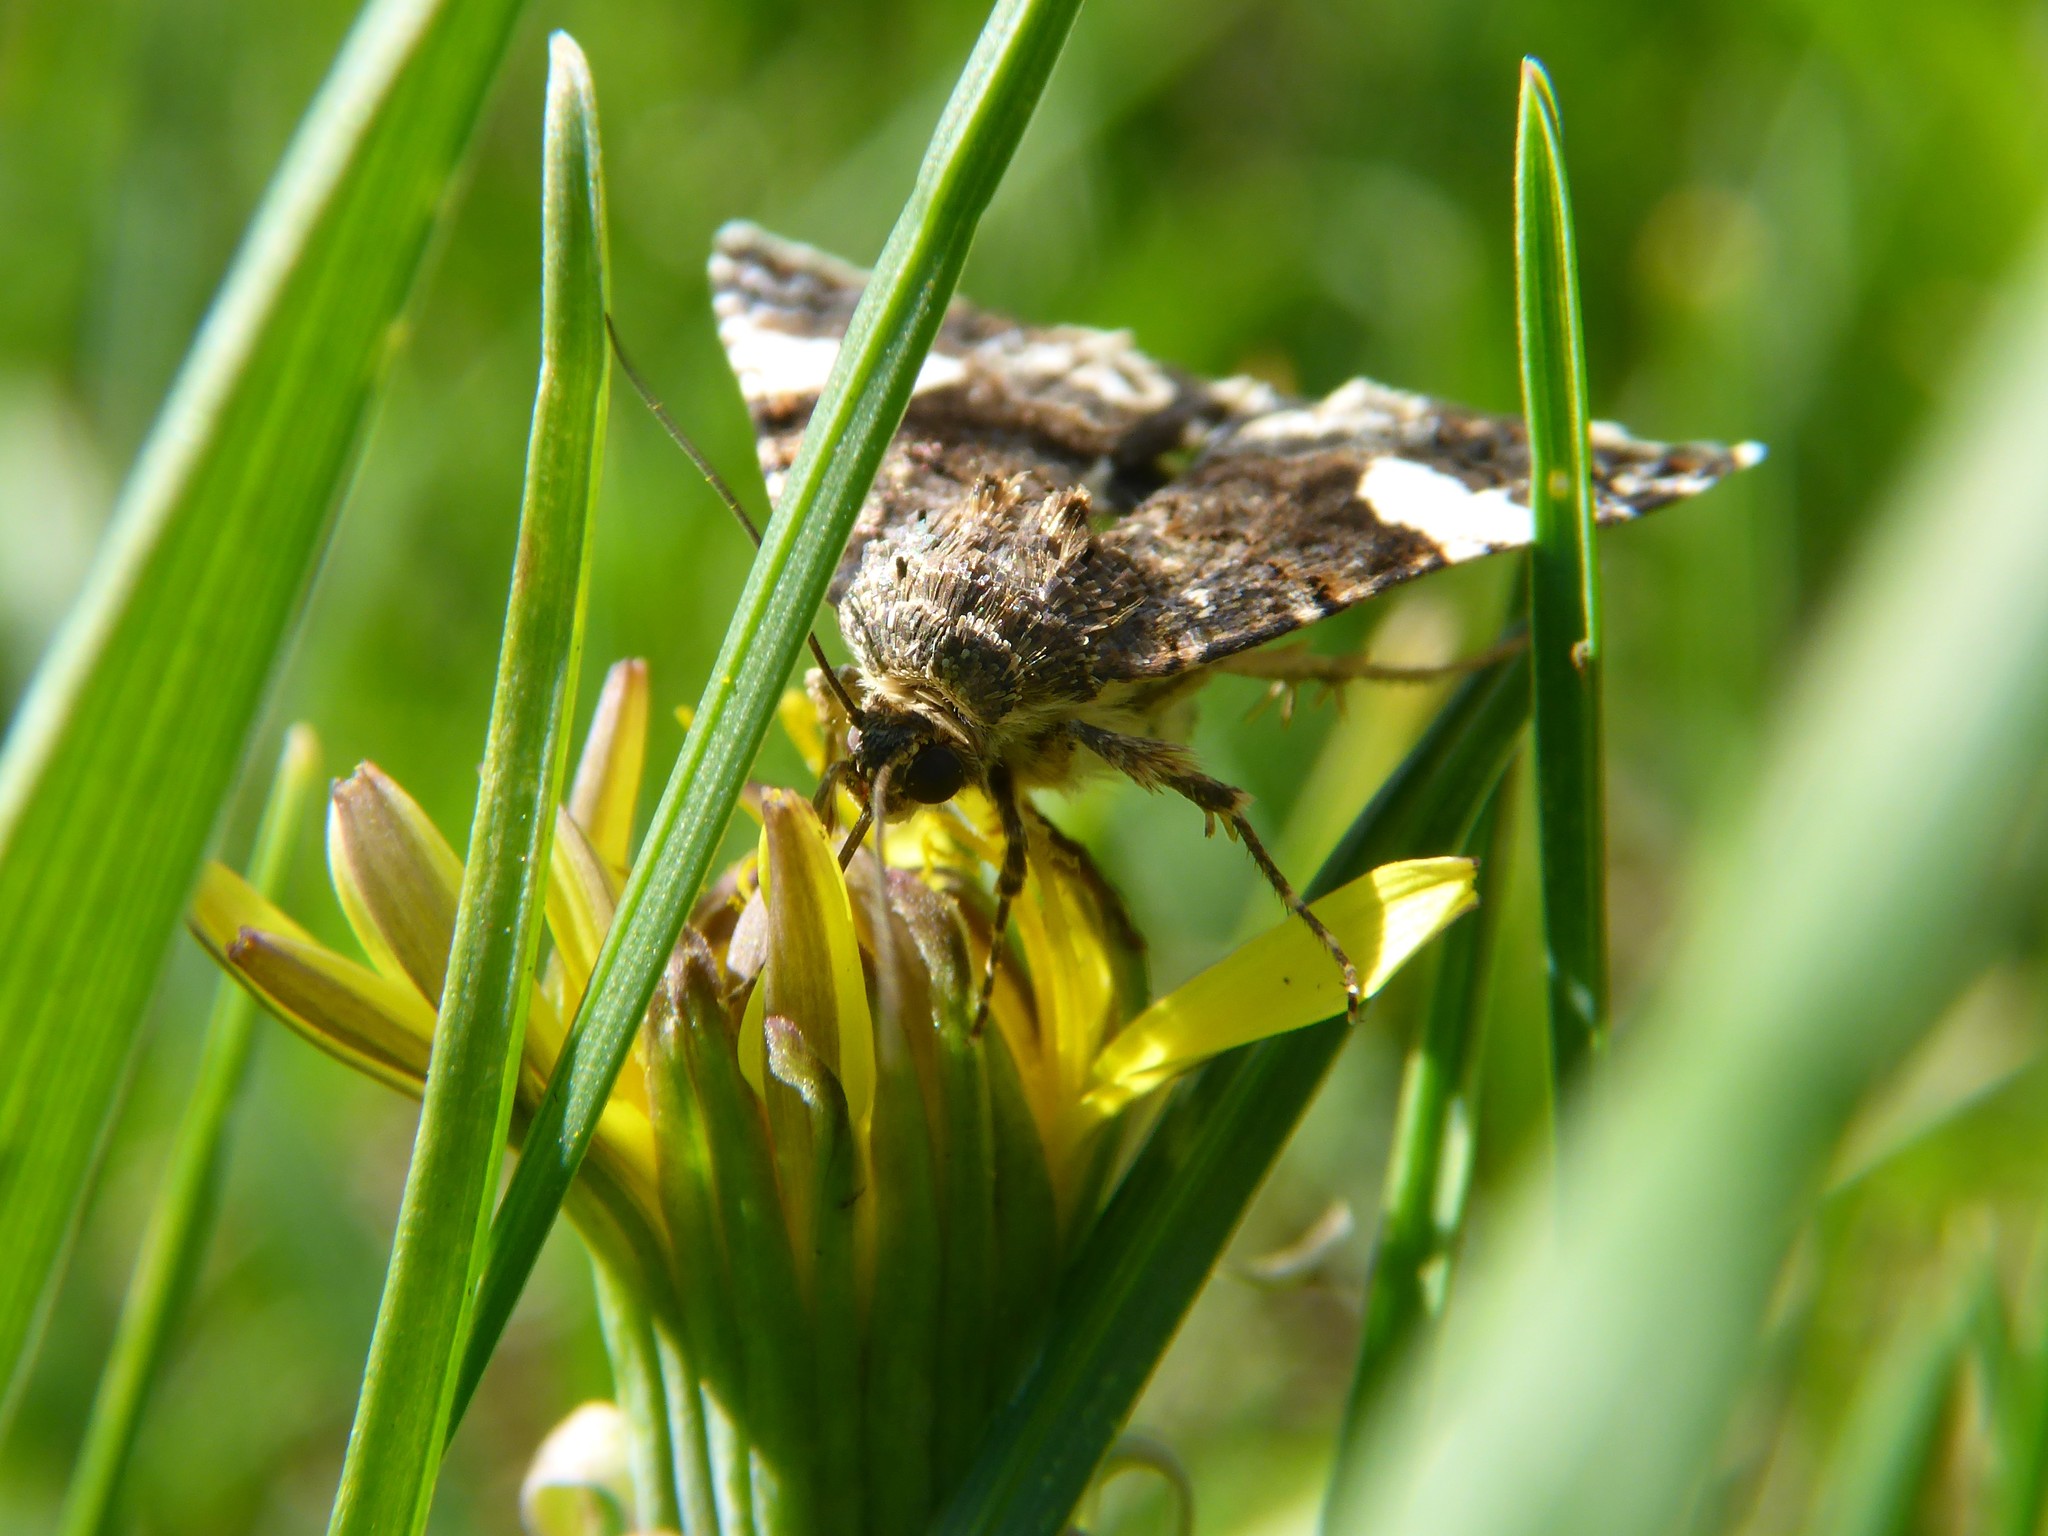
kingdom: Animalia
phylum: Arthropoda
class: Insecta
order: Lepidoptera
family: Erebidae
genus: Tyta
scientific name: Tyta luctuosa
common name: Four-spotted
